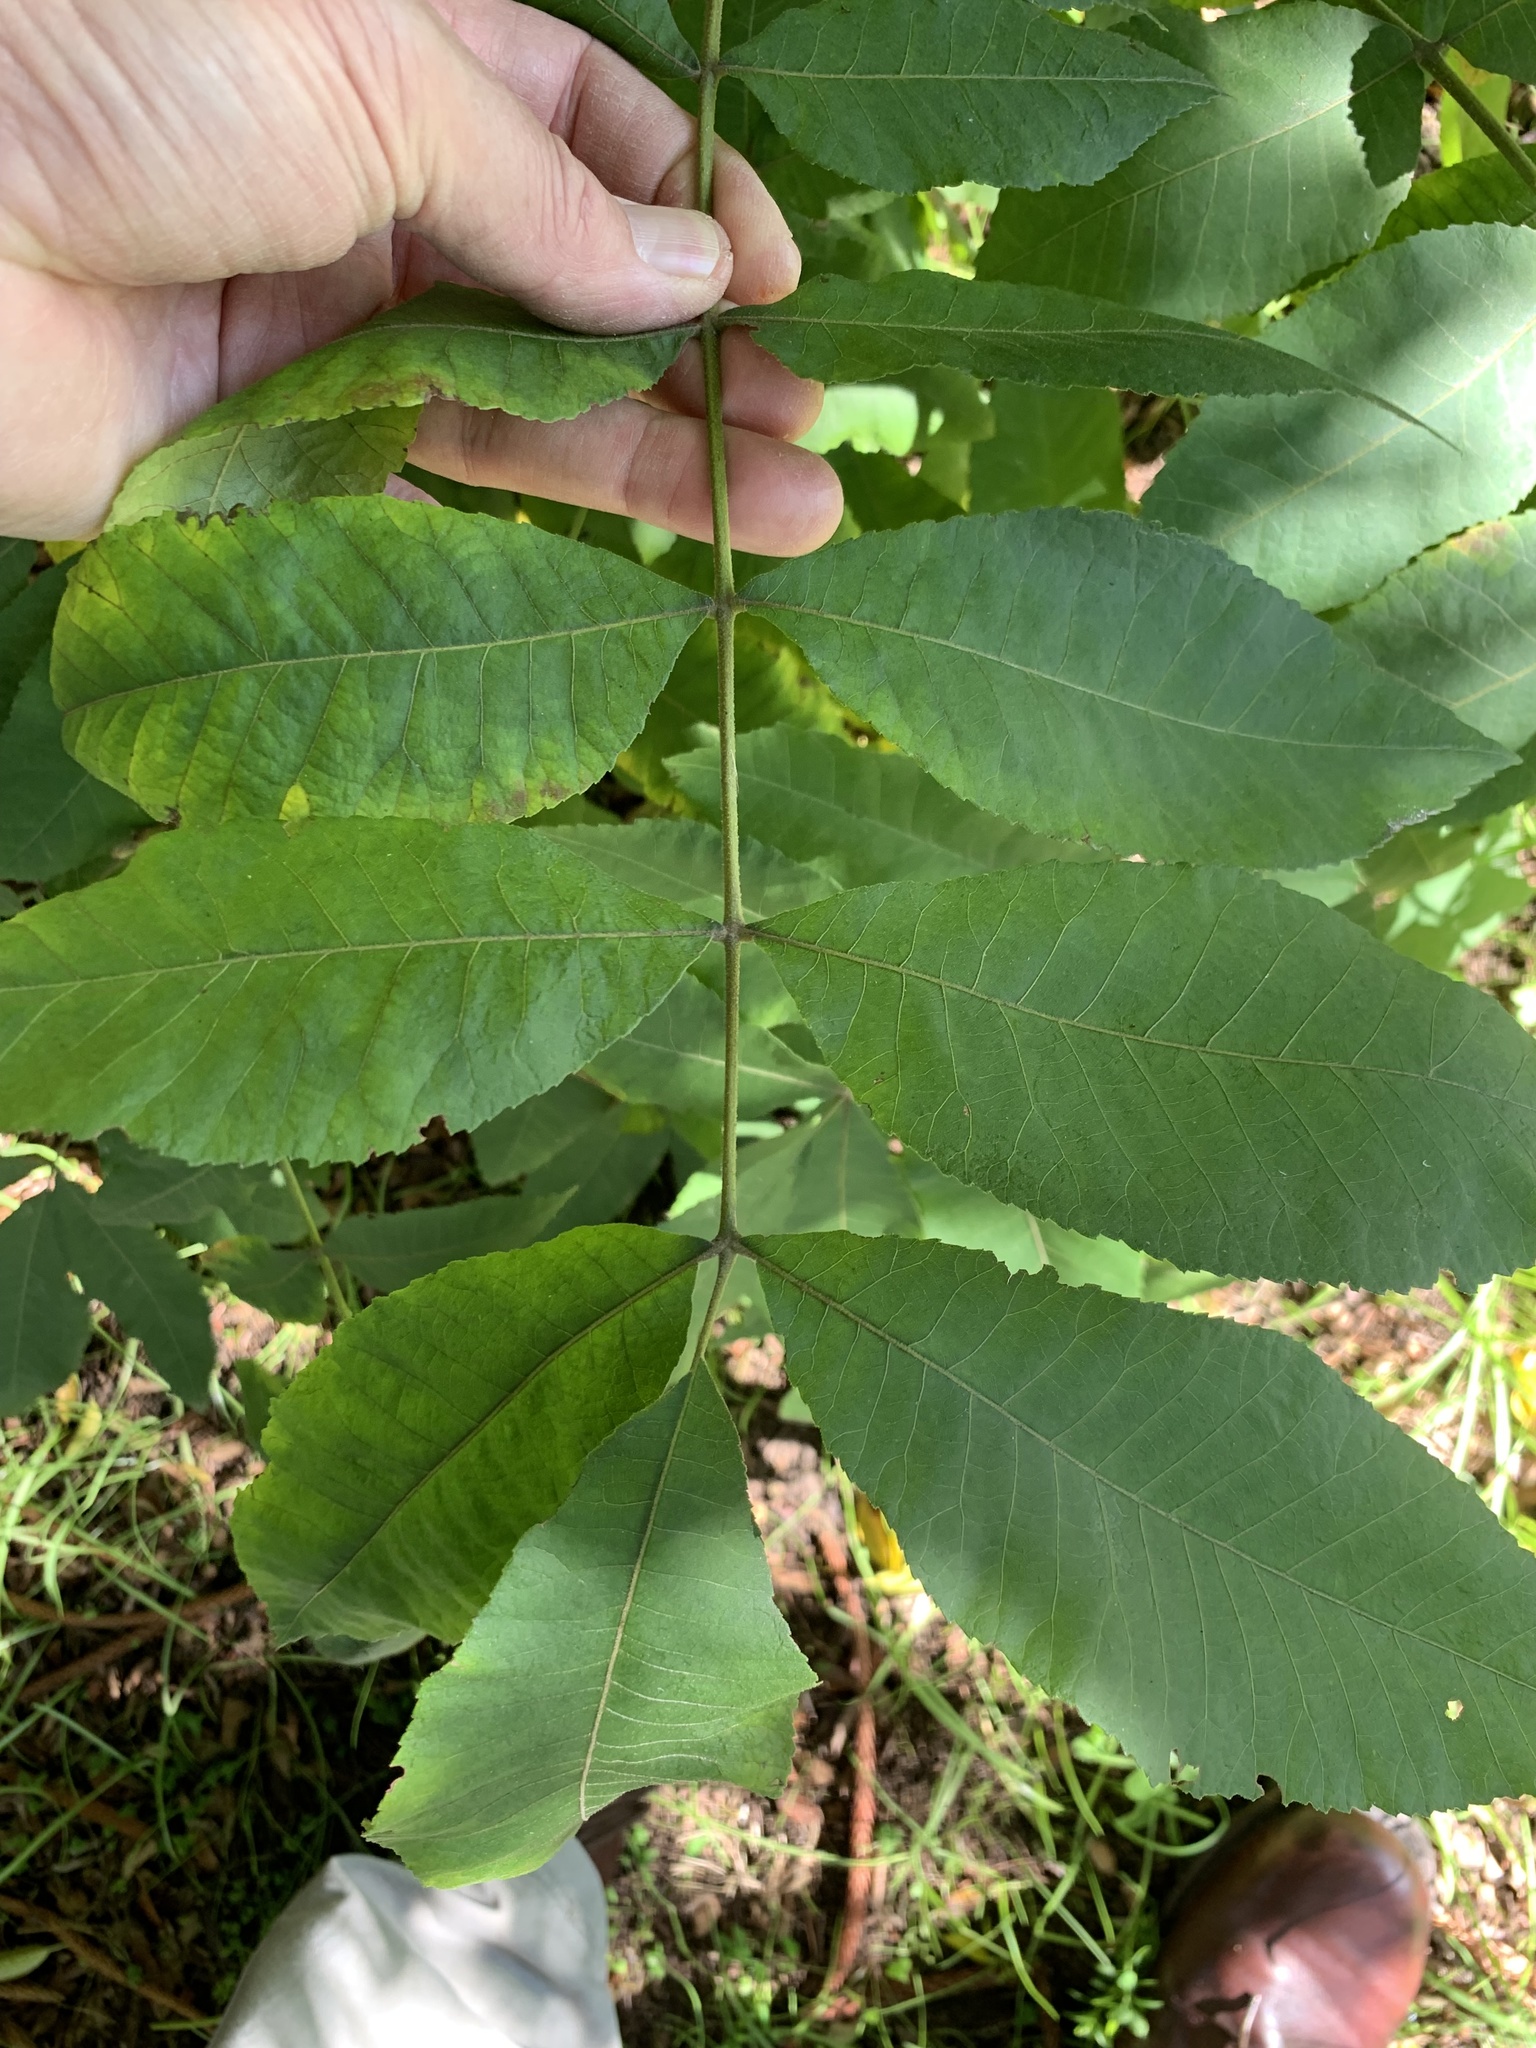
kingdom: Plantae
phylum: Tracheophyta
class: Magnoliopsida
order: Fagales
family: Juglandaceae
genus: Carya
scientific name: Carya illinoinensis
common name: Pecan
